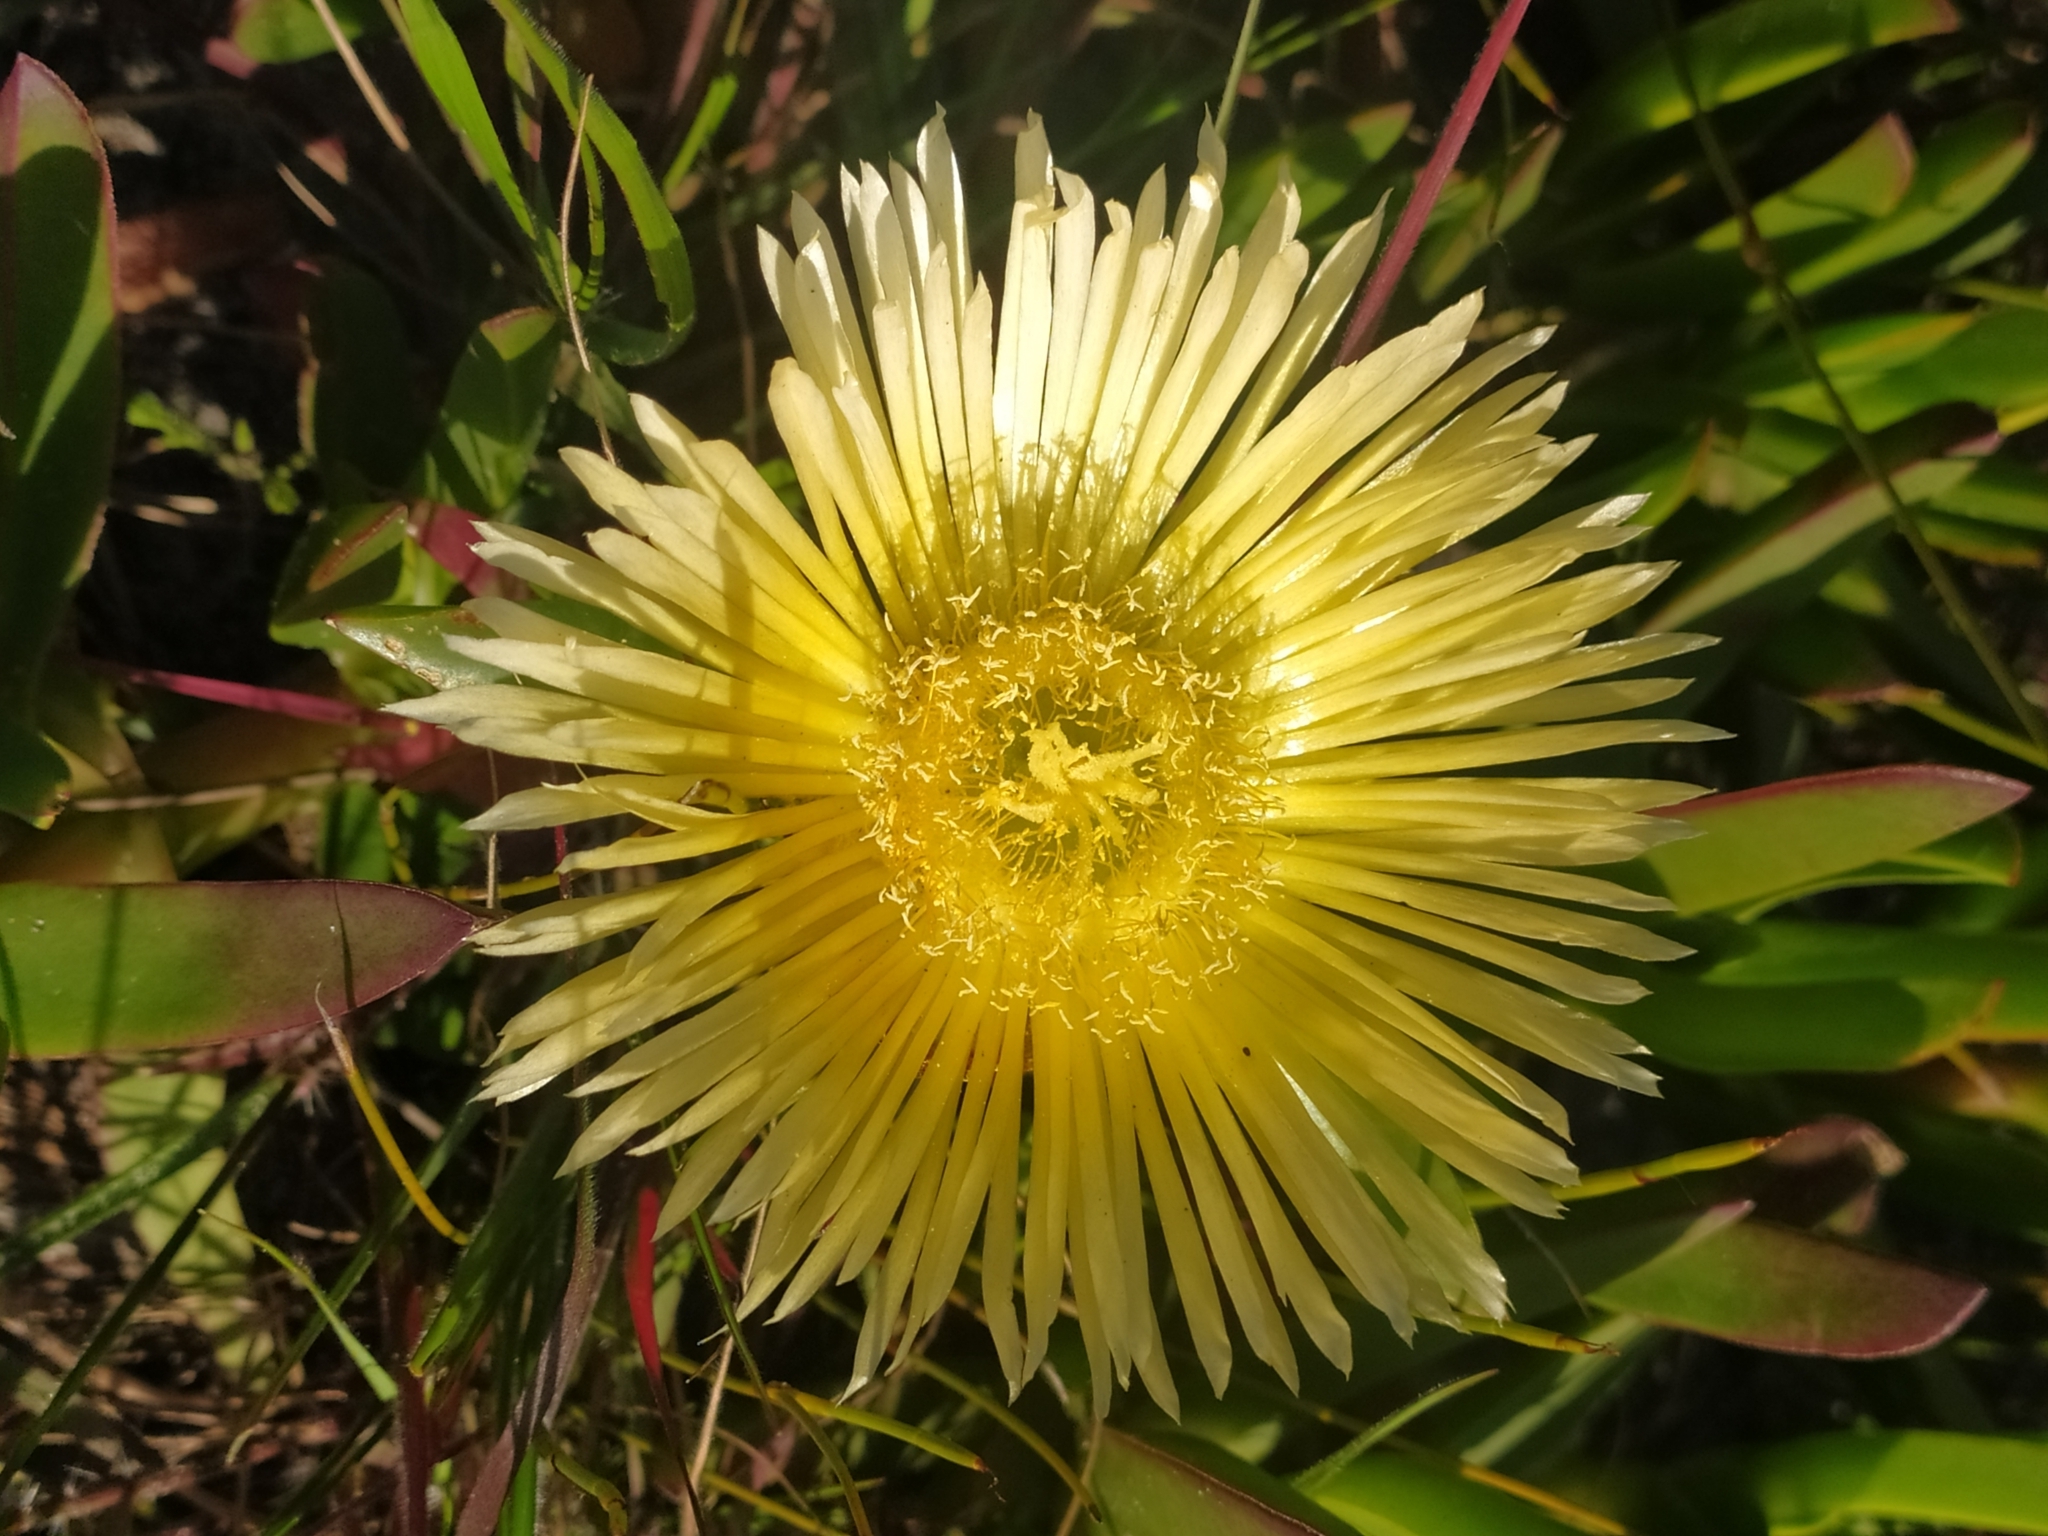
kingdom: Plantae
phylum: Tracheophyta
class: Magnoliopsida
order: Caryophyllales
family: Aizoaceae
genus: Carpobrotus
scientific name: Carpobrotus edulis
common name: Hottentot-fig
